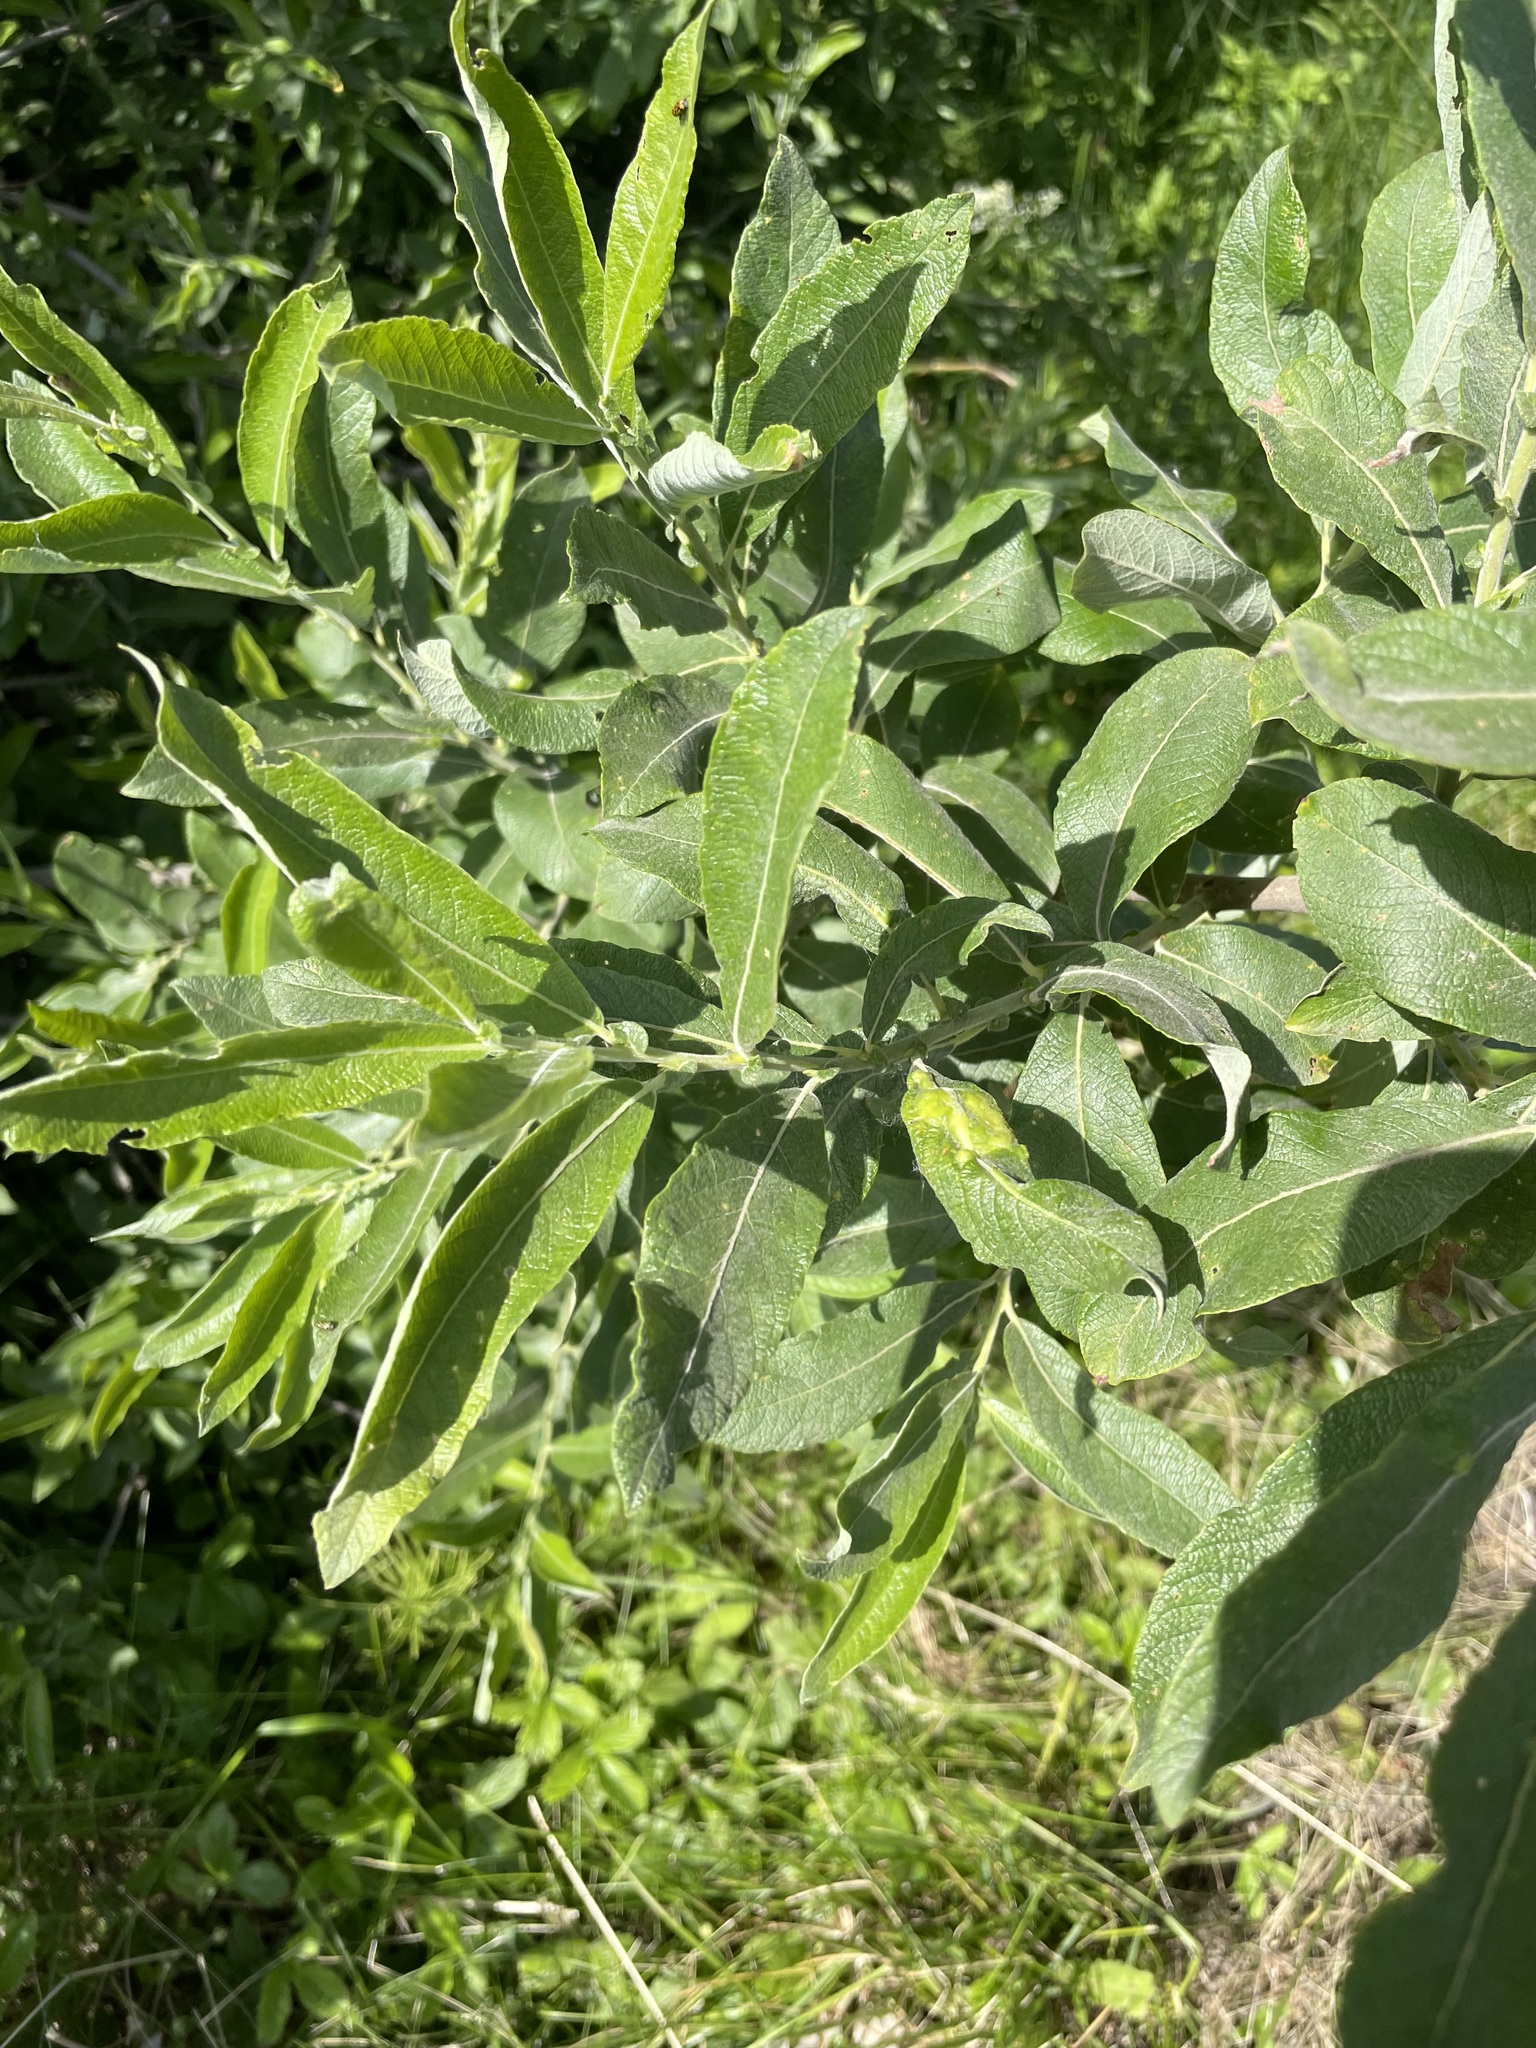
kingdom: Plantae
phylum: Tracheophyta
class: Magnoliopsida
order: Malpighiales
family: Salicaceae
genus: Salix
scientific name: Salix cinerea
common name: Common sallow
